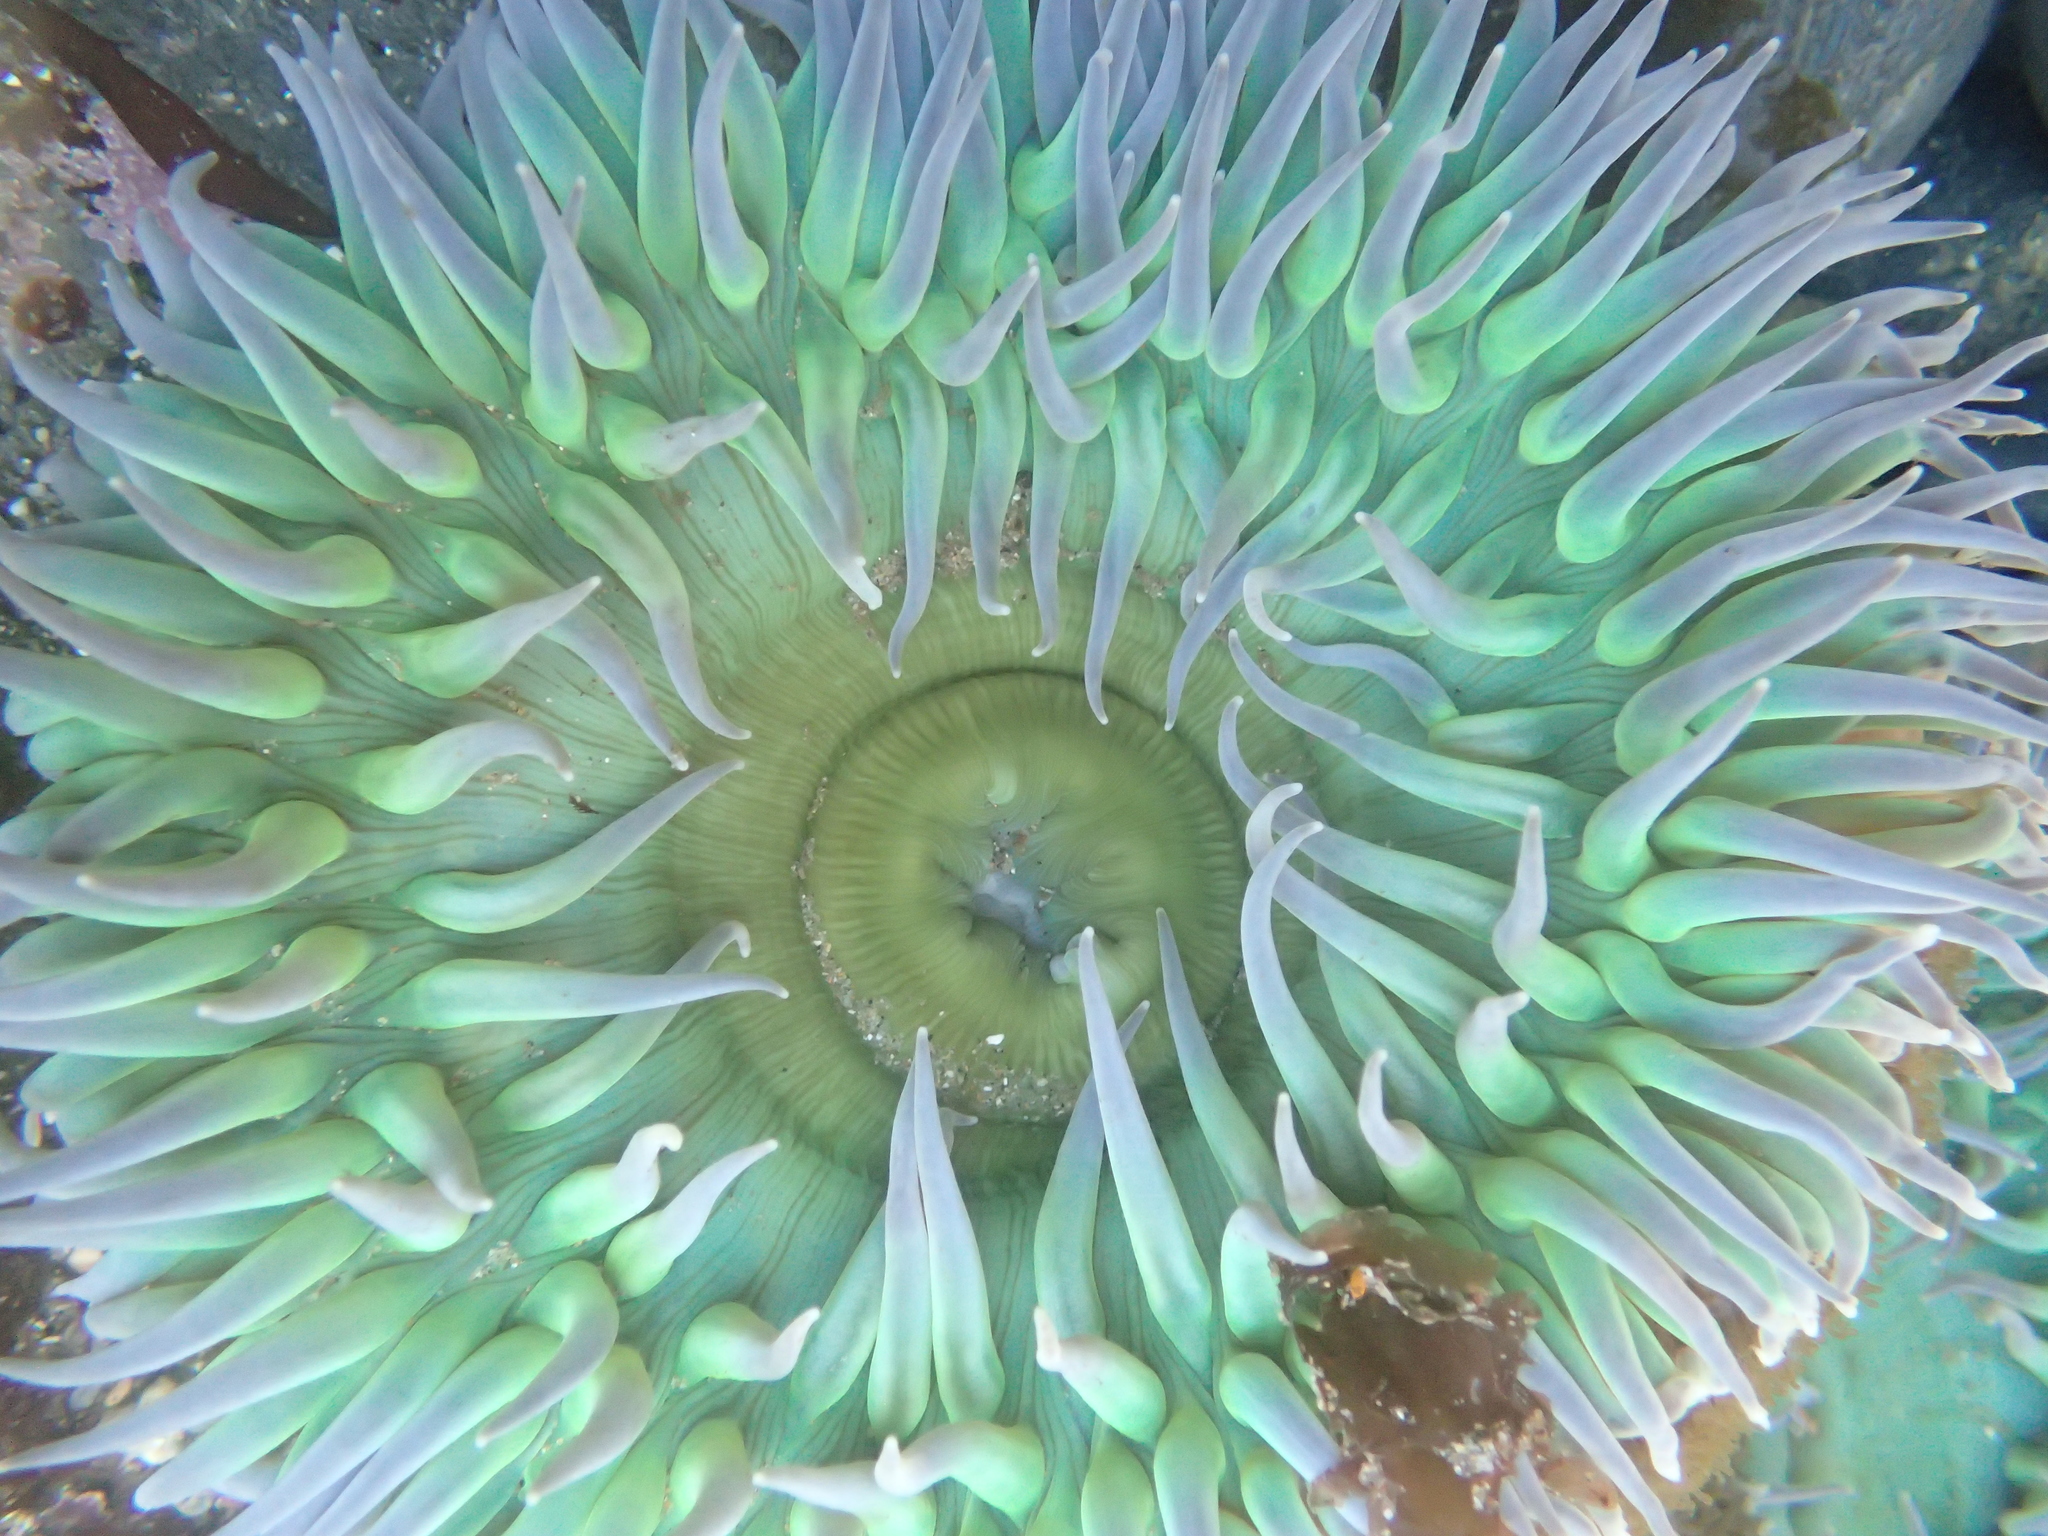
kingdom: Animalia
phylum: Cnidaria
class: Anthozoa
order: Actiniaria
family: Actiniidae
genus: Anthopleura
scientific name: Anthopleura xanthogrammica
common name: Giant green anemone
